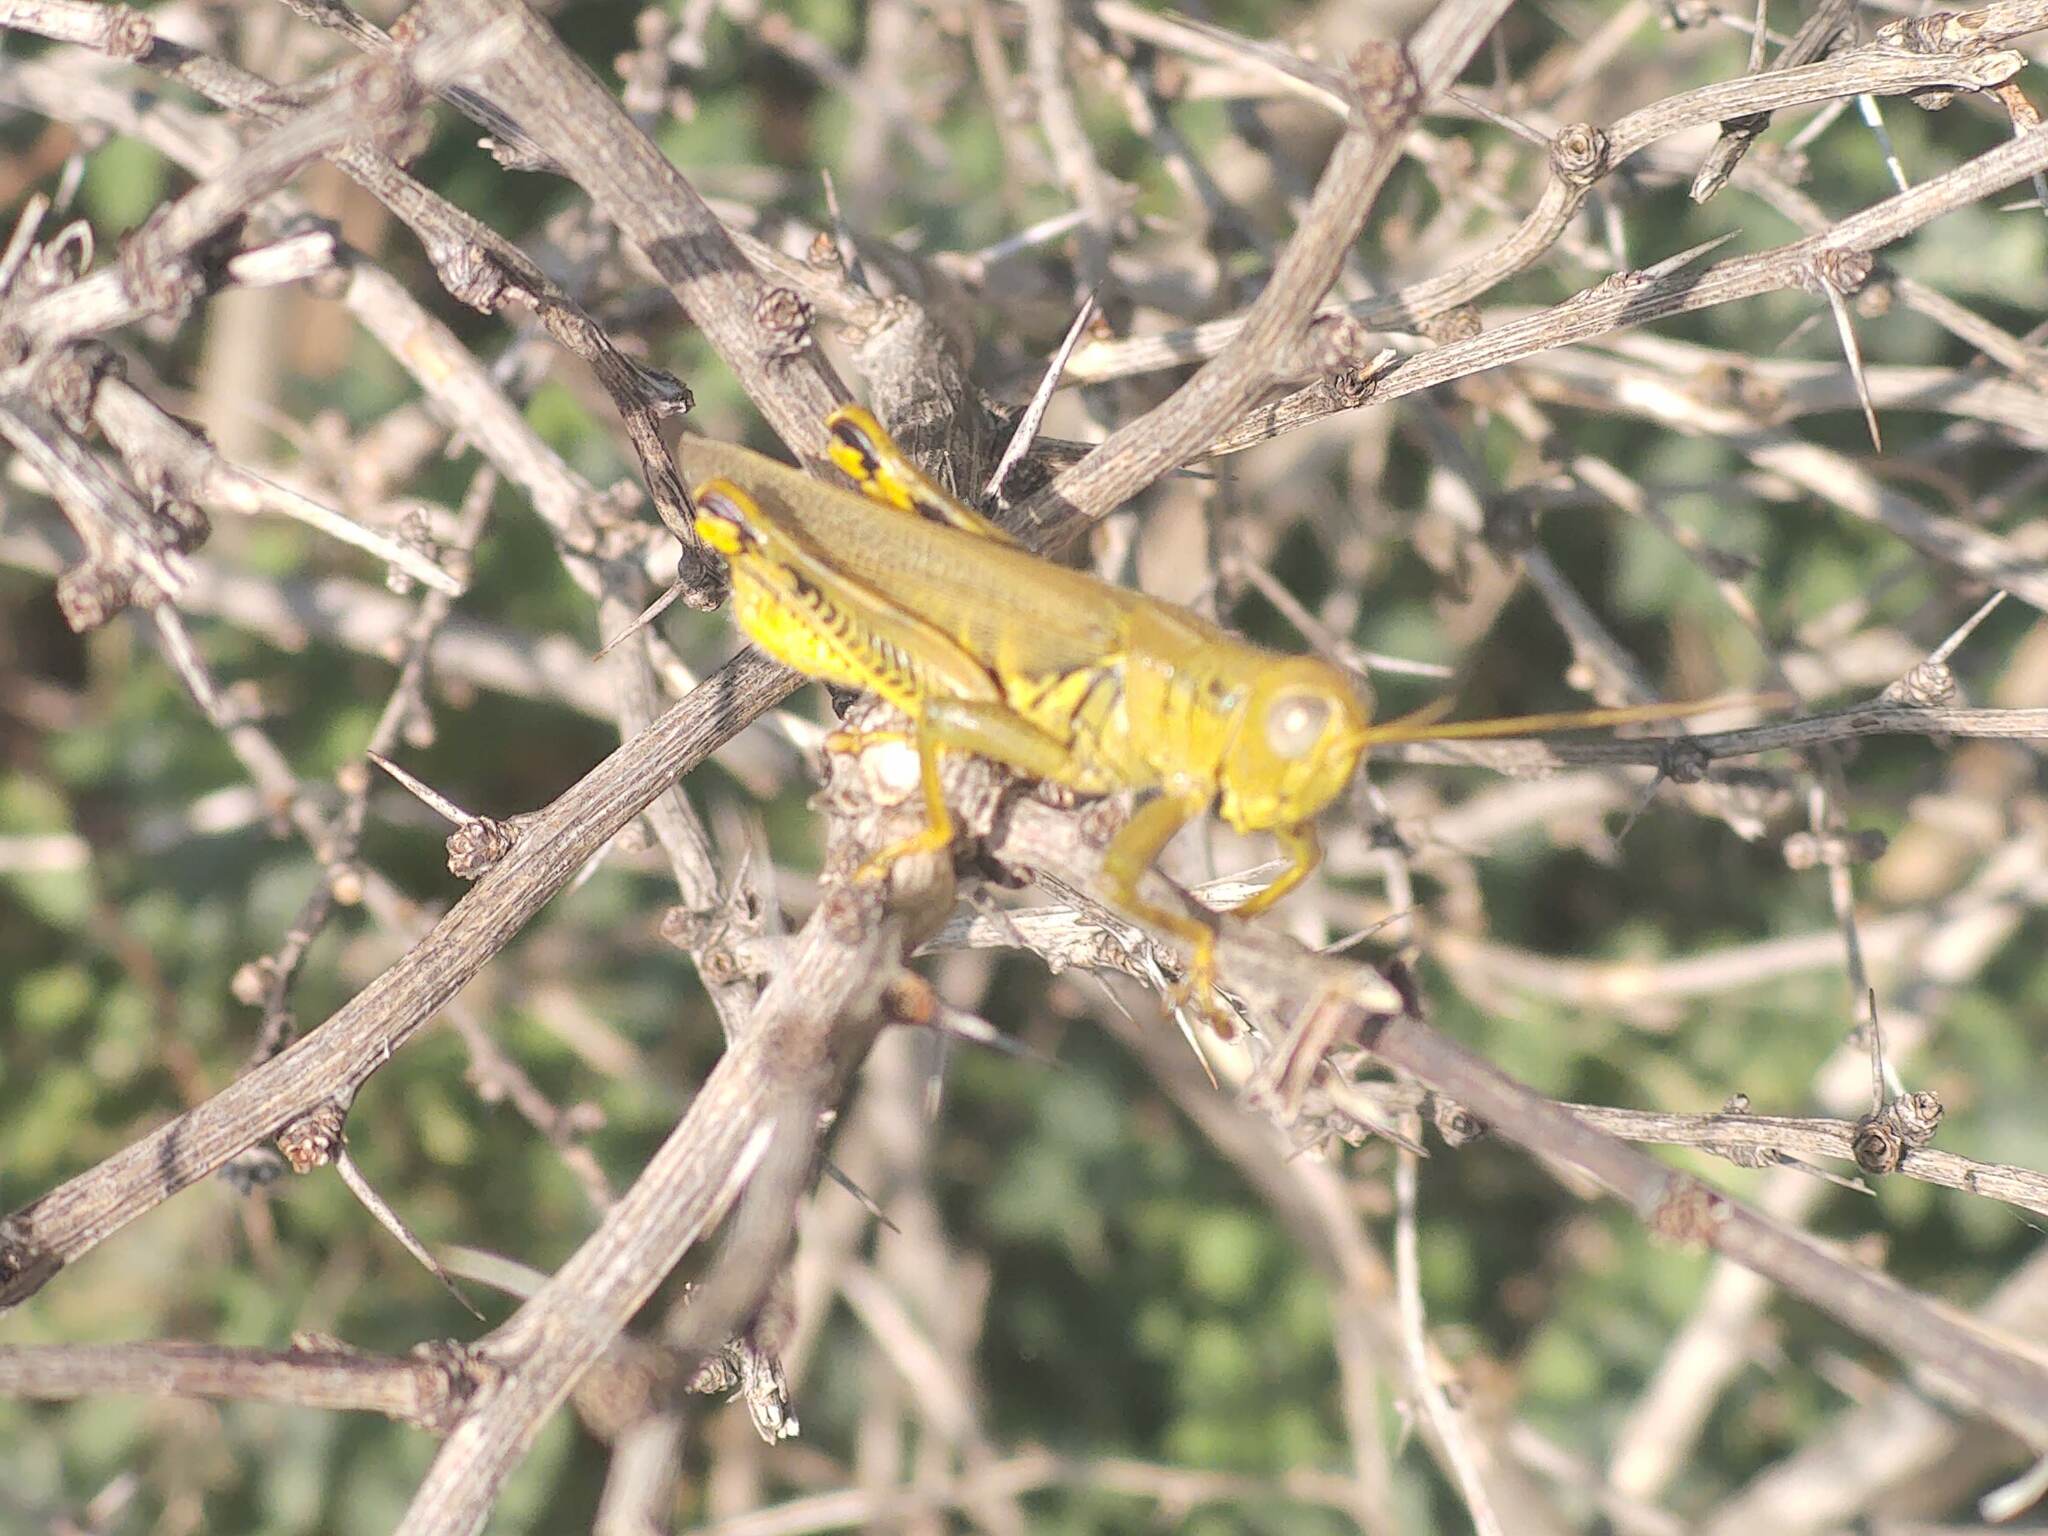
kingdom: Animalia
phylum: Arthropoda
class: Insecta
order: Orthoptera
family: Acrididae
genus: Melanoplus
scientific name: Melanoplus differentialis
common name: Differential grasshopper
